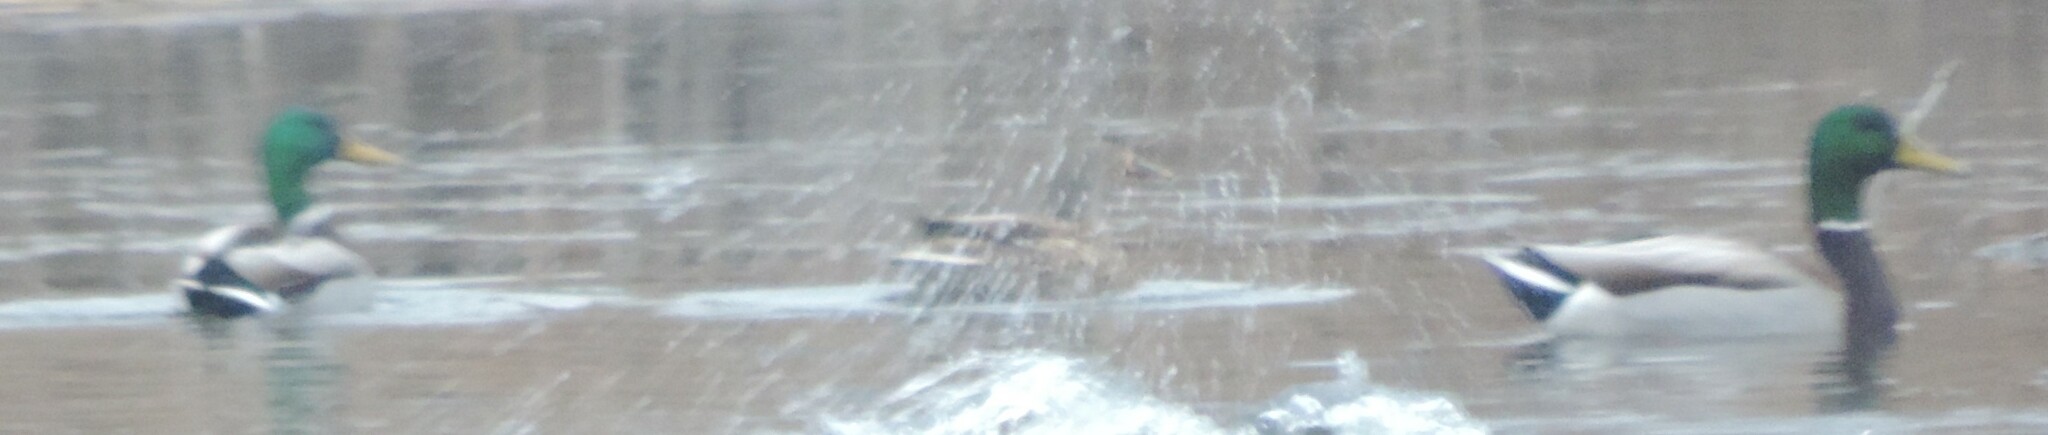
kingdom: Animalia
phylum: Chordata
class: Aves
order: Anseriformes
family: Anatidae
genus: Anas
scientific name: Anas platyrhynchos
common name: Mallard
